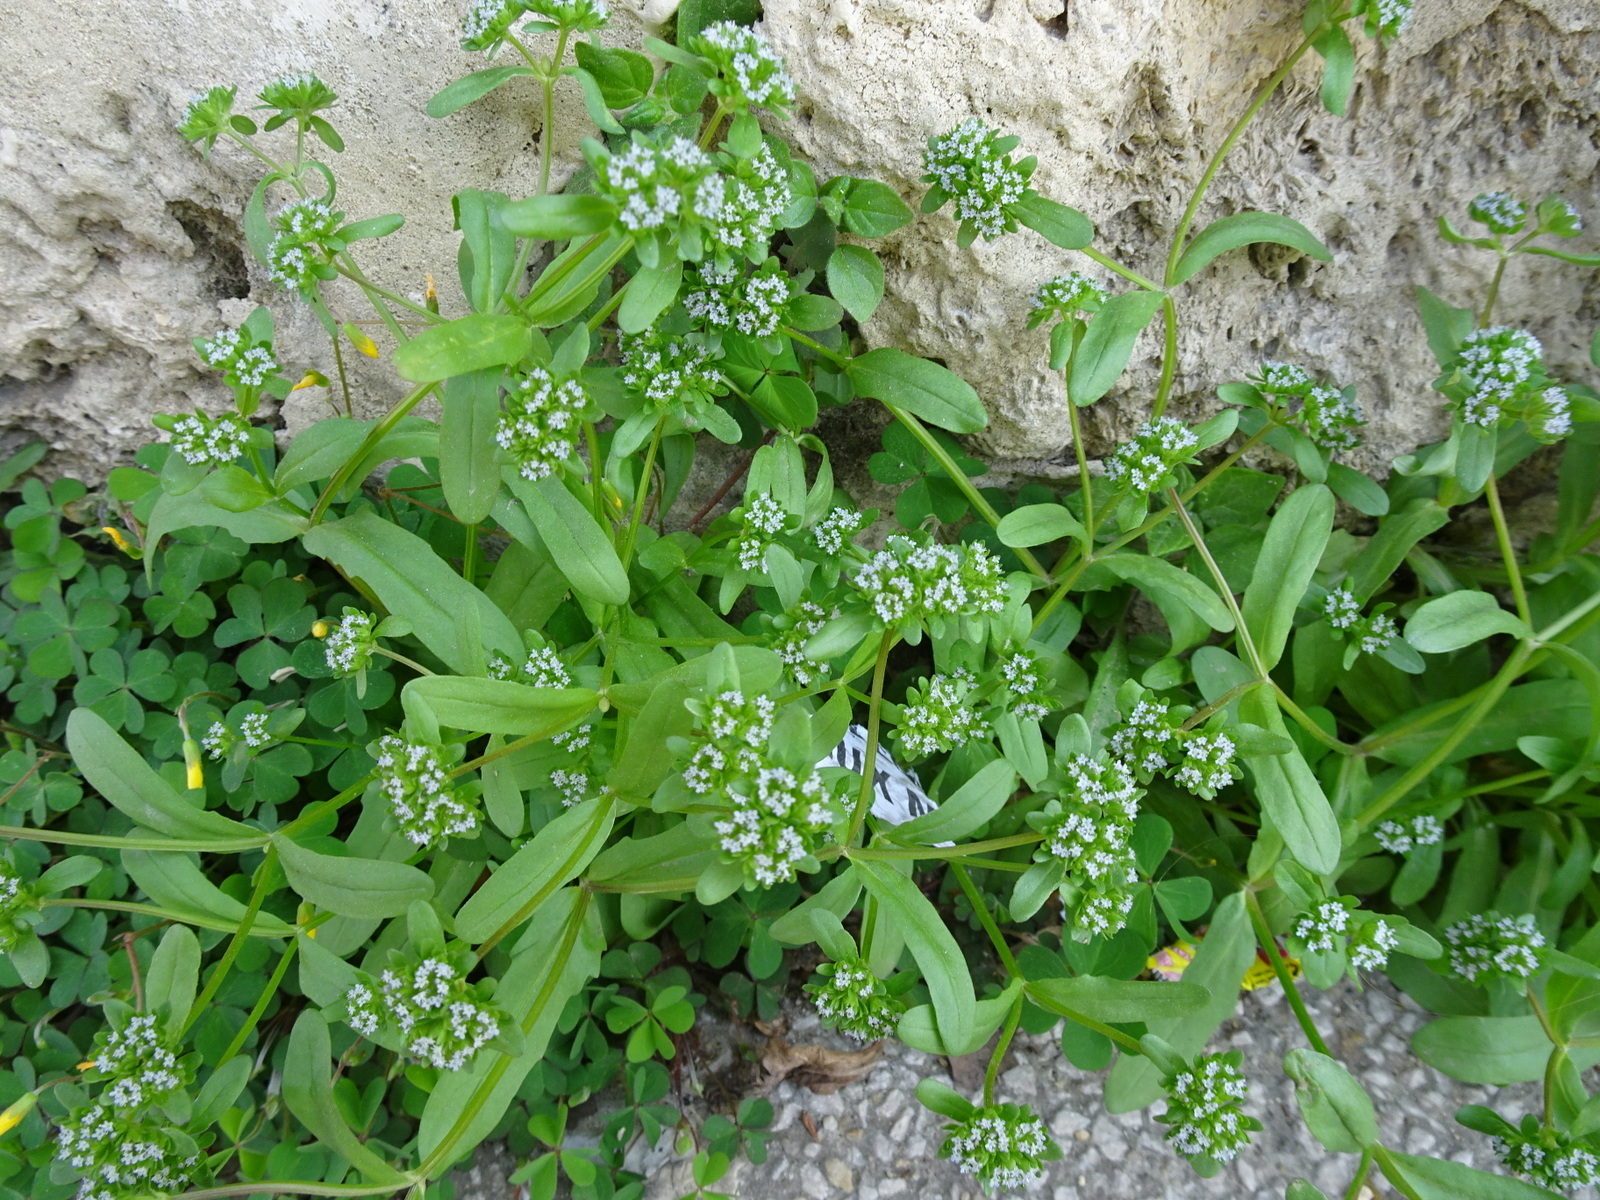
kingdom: Plantae
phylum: Tracheophyta
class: Magnoliopsida
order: Dipsacales
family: Caprifoliaceae
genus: Valerianella
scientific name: Valerianella locusta
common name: Common cornsalad
